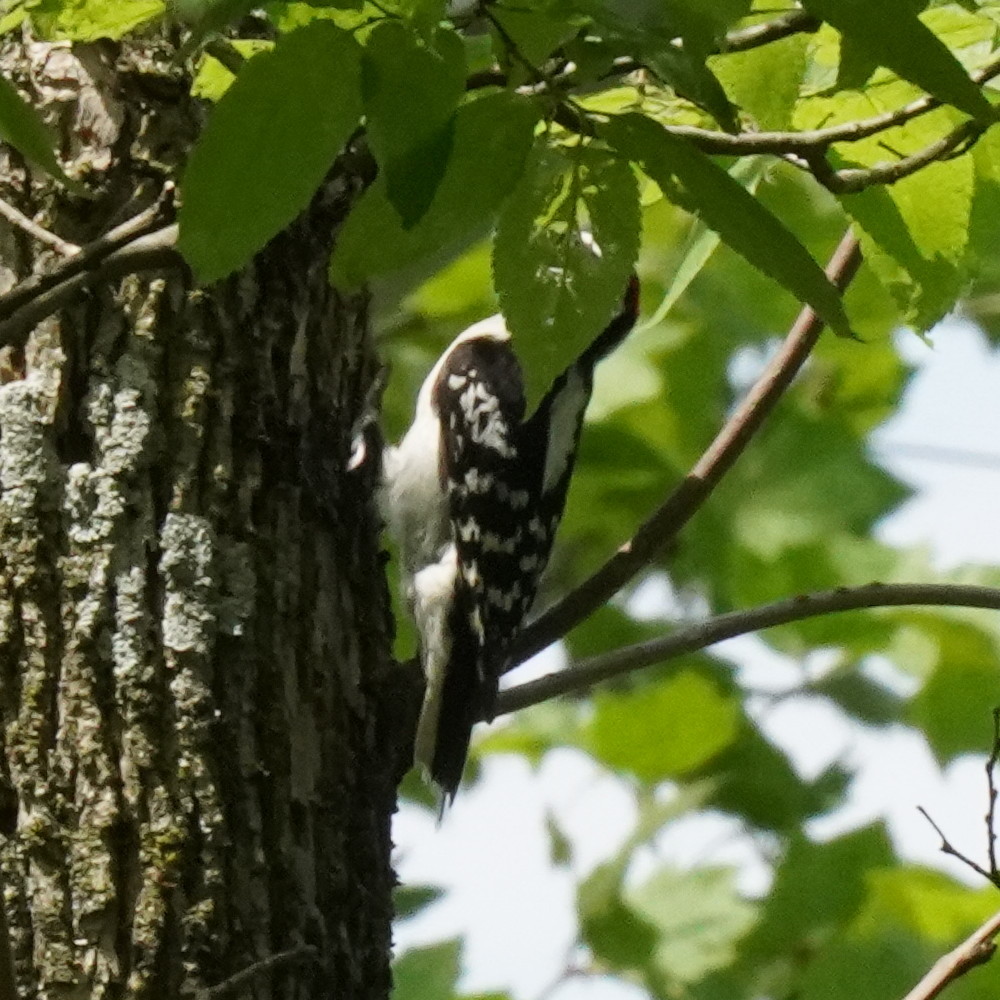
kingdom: Animalia
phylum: Chordata
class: Aves
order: Piciformes
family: Picidae
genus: Dryobates
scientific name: Dryobates pubescens
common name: Downy woodpecker
